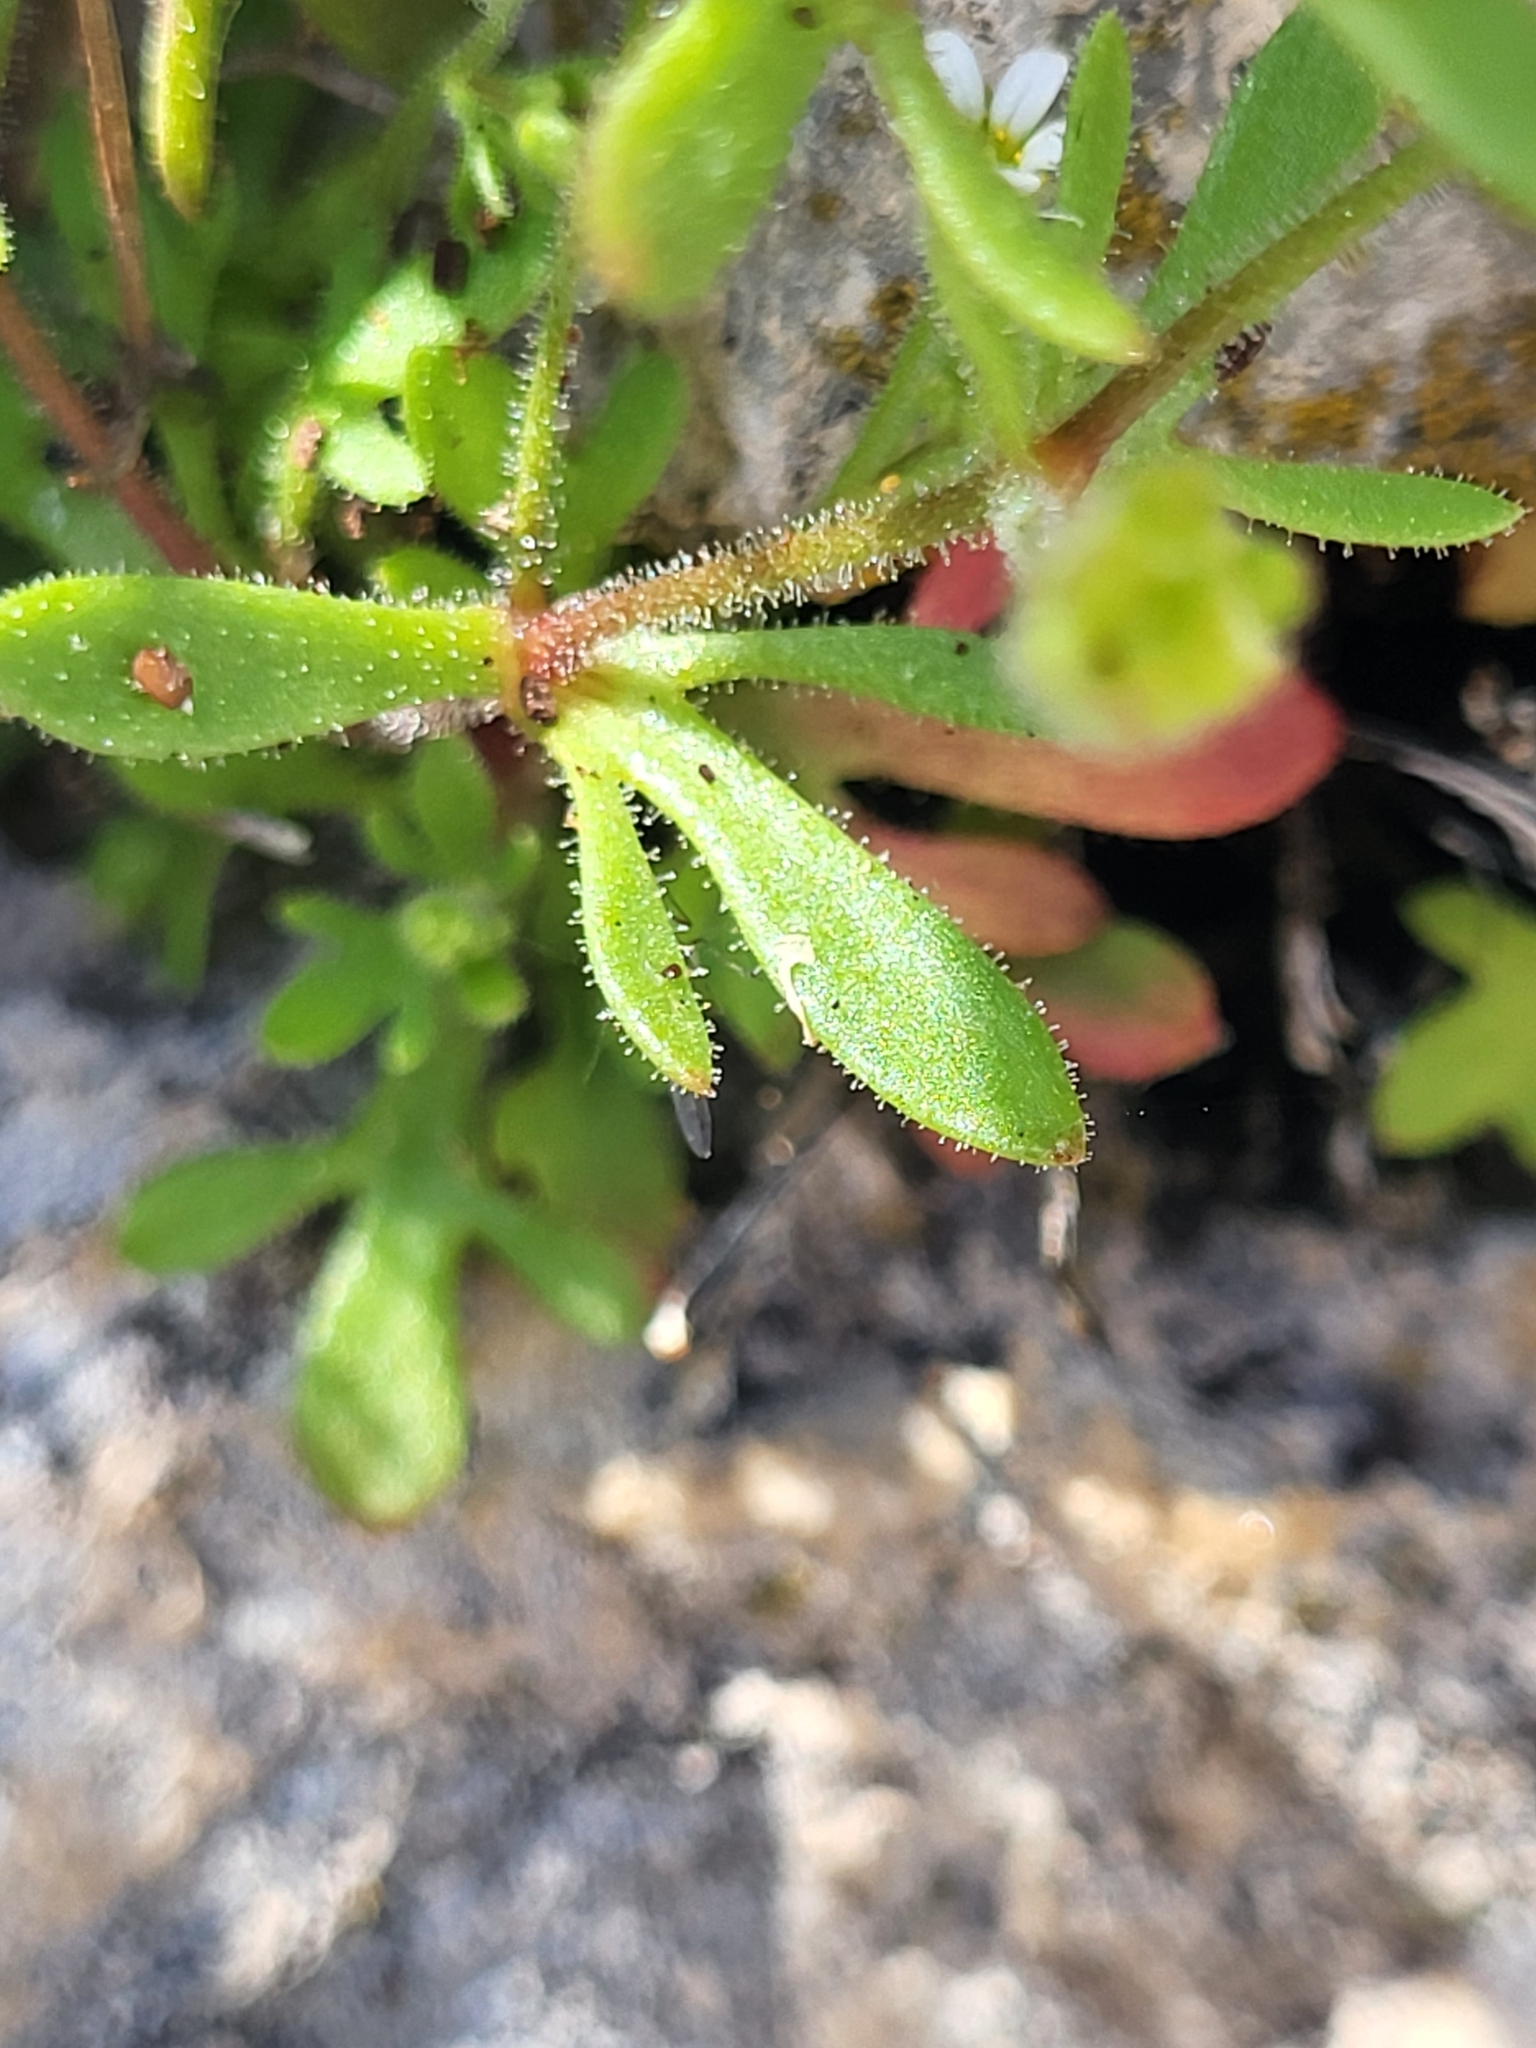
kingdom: Plantae
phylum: Tracheophyta
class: Magnoliopsida
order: Saxifragales
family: Saxifragaceae
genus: Saxifraga
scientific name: Saxifraga tridactylites
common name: Rue-leaved saxifrage
